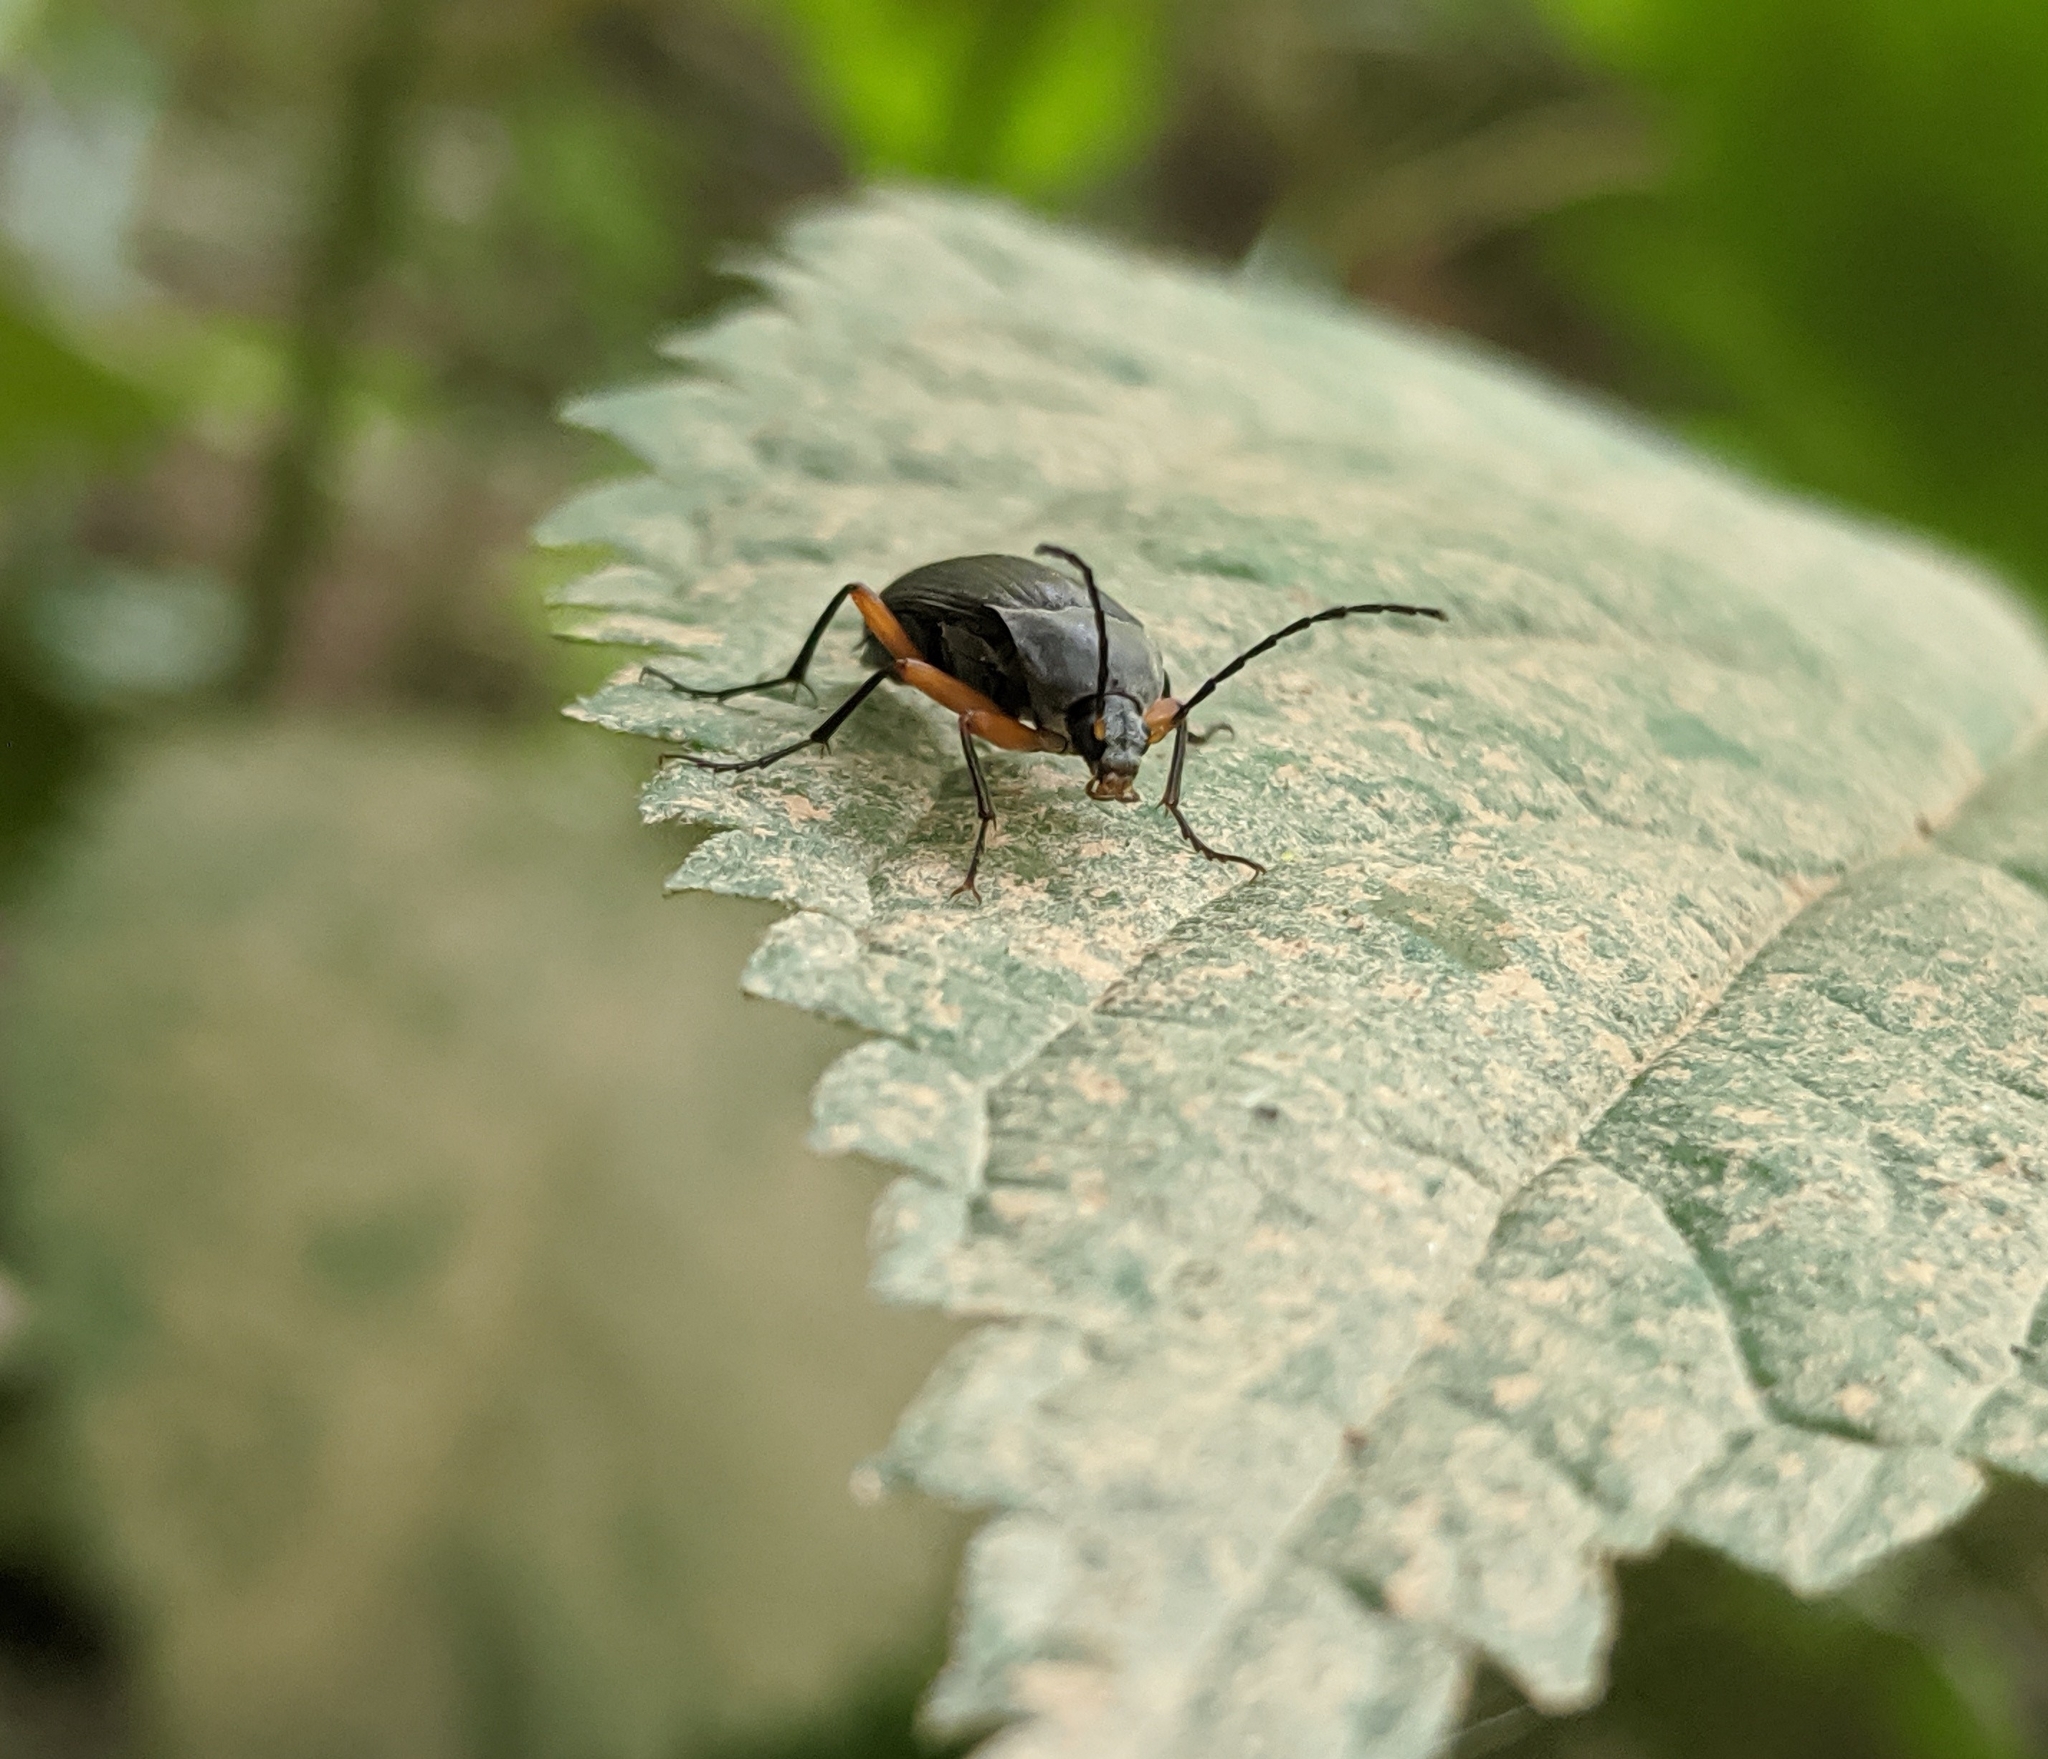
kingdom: Animalia
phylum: Arthropoda
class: Insecta
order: Coleoptera
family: Tenebrionidae
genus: Androchirus
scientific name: Androchirus femoralis
